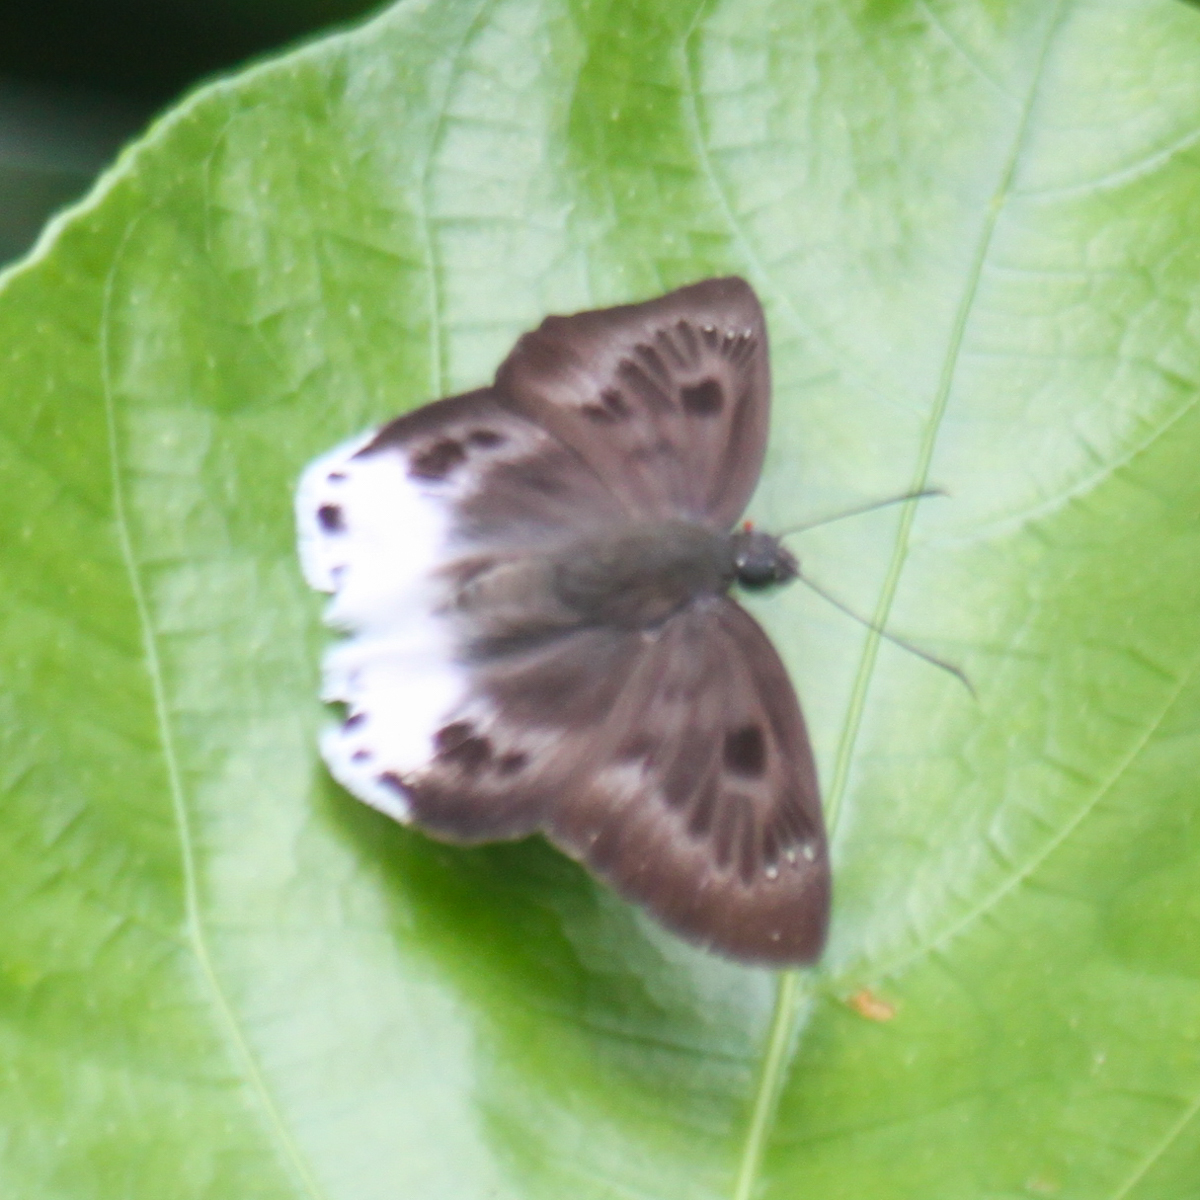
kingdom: Animalia
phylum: Arthropoda
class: Insecta
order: Lepidoptera
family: Hesperiidae
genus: Tagiades
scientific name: Tagiades parra
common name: Straight snow flat
